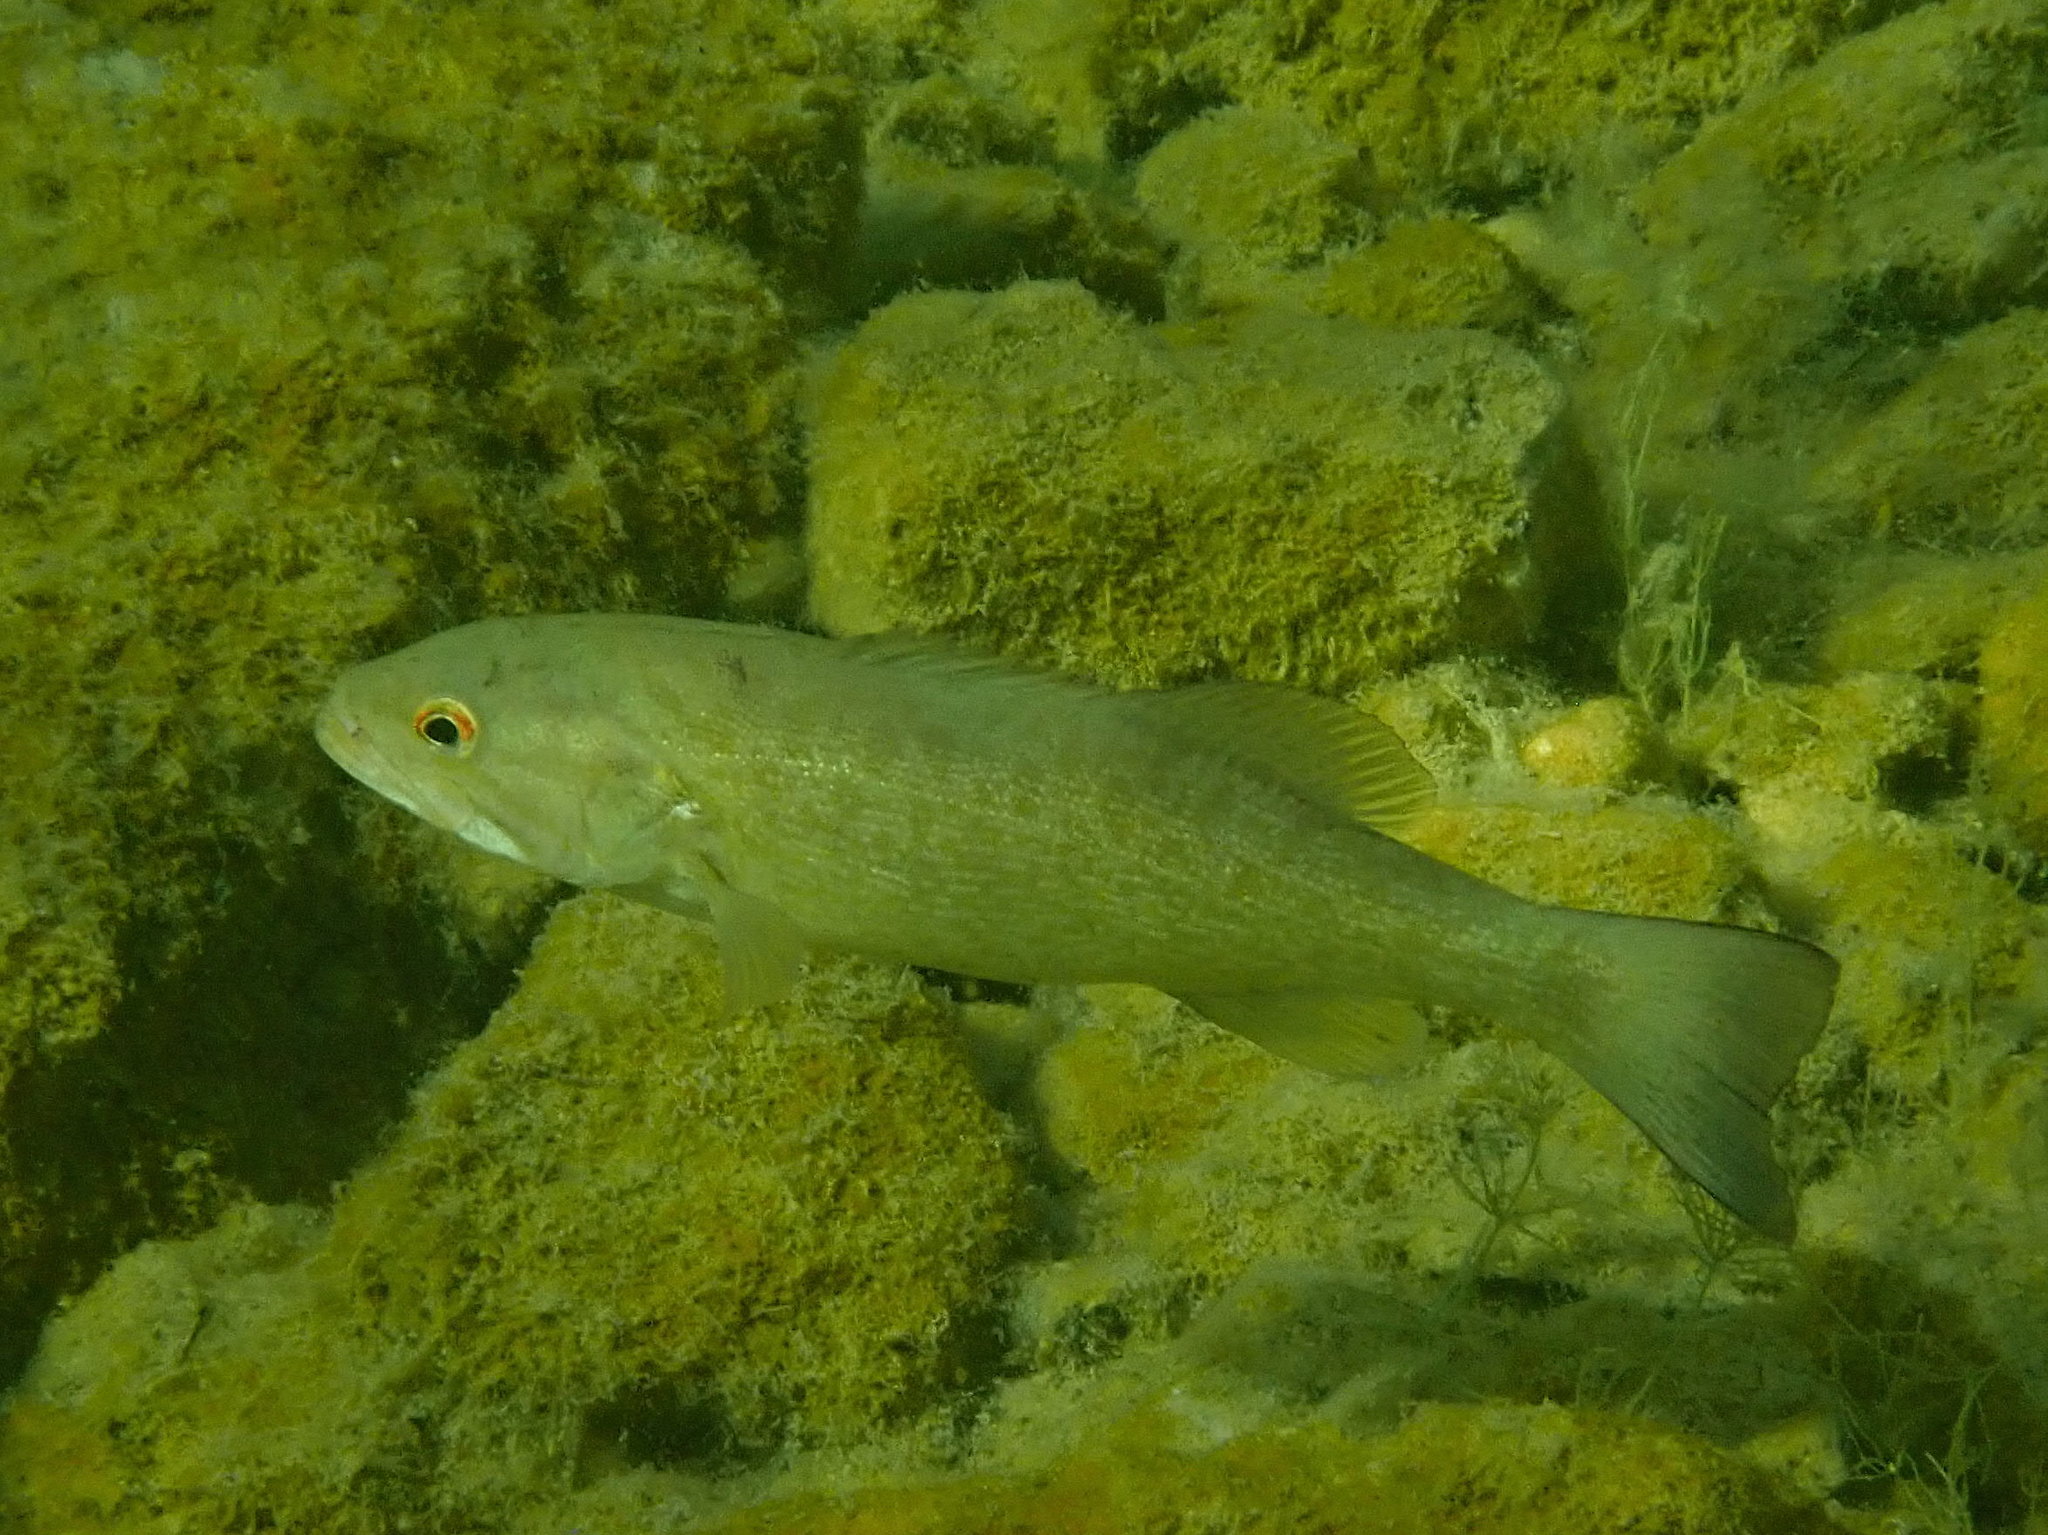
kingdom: Animalia
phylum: Chordata
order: Perciformes
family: Centrarchidae
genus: Micropterus
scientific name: Micropterus dolomieu
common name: Smallmouth bass
